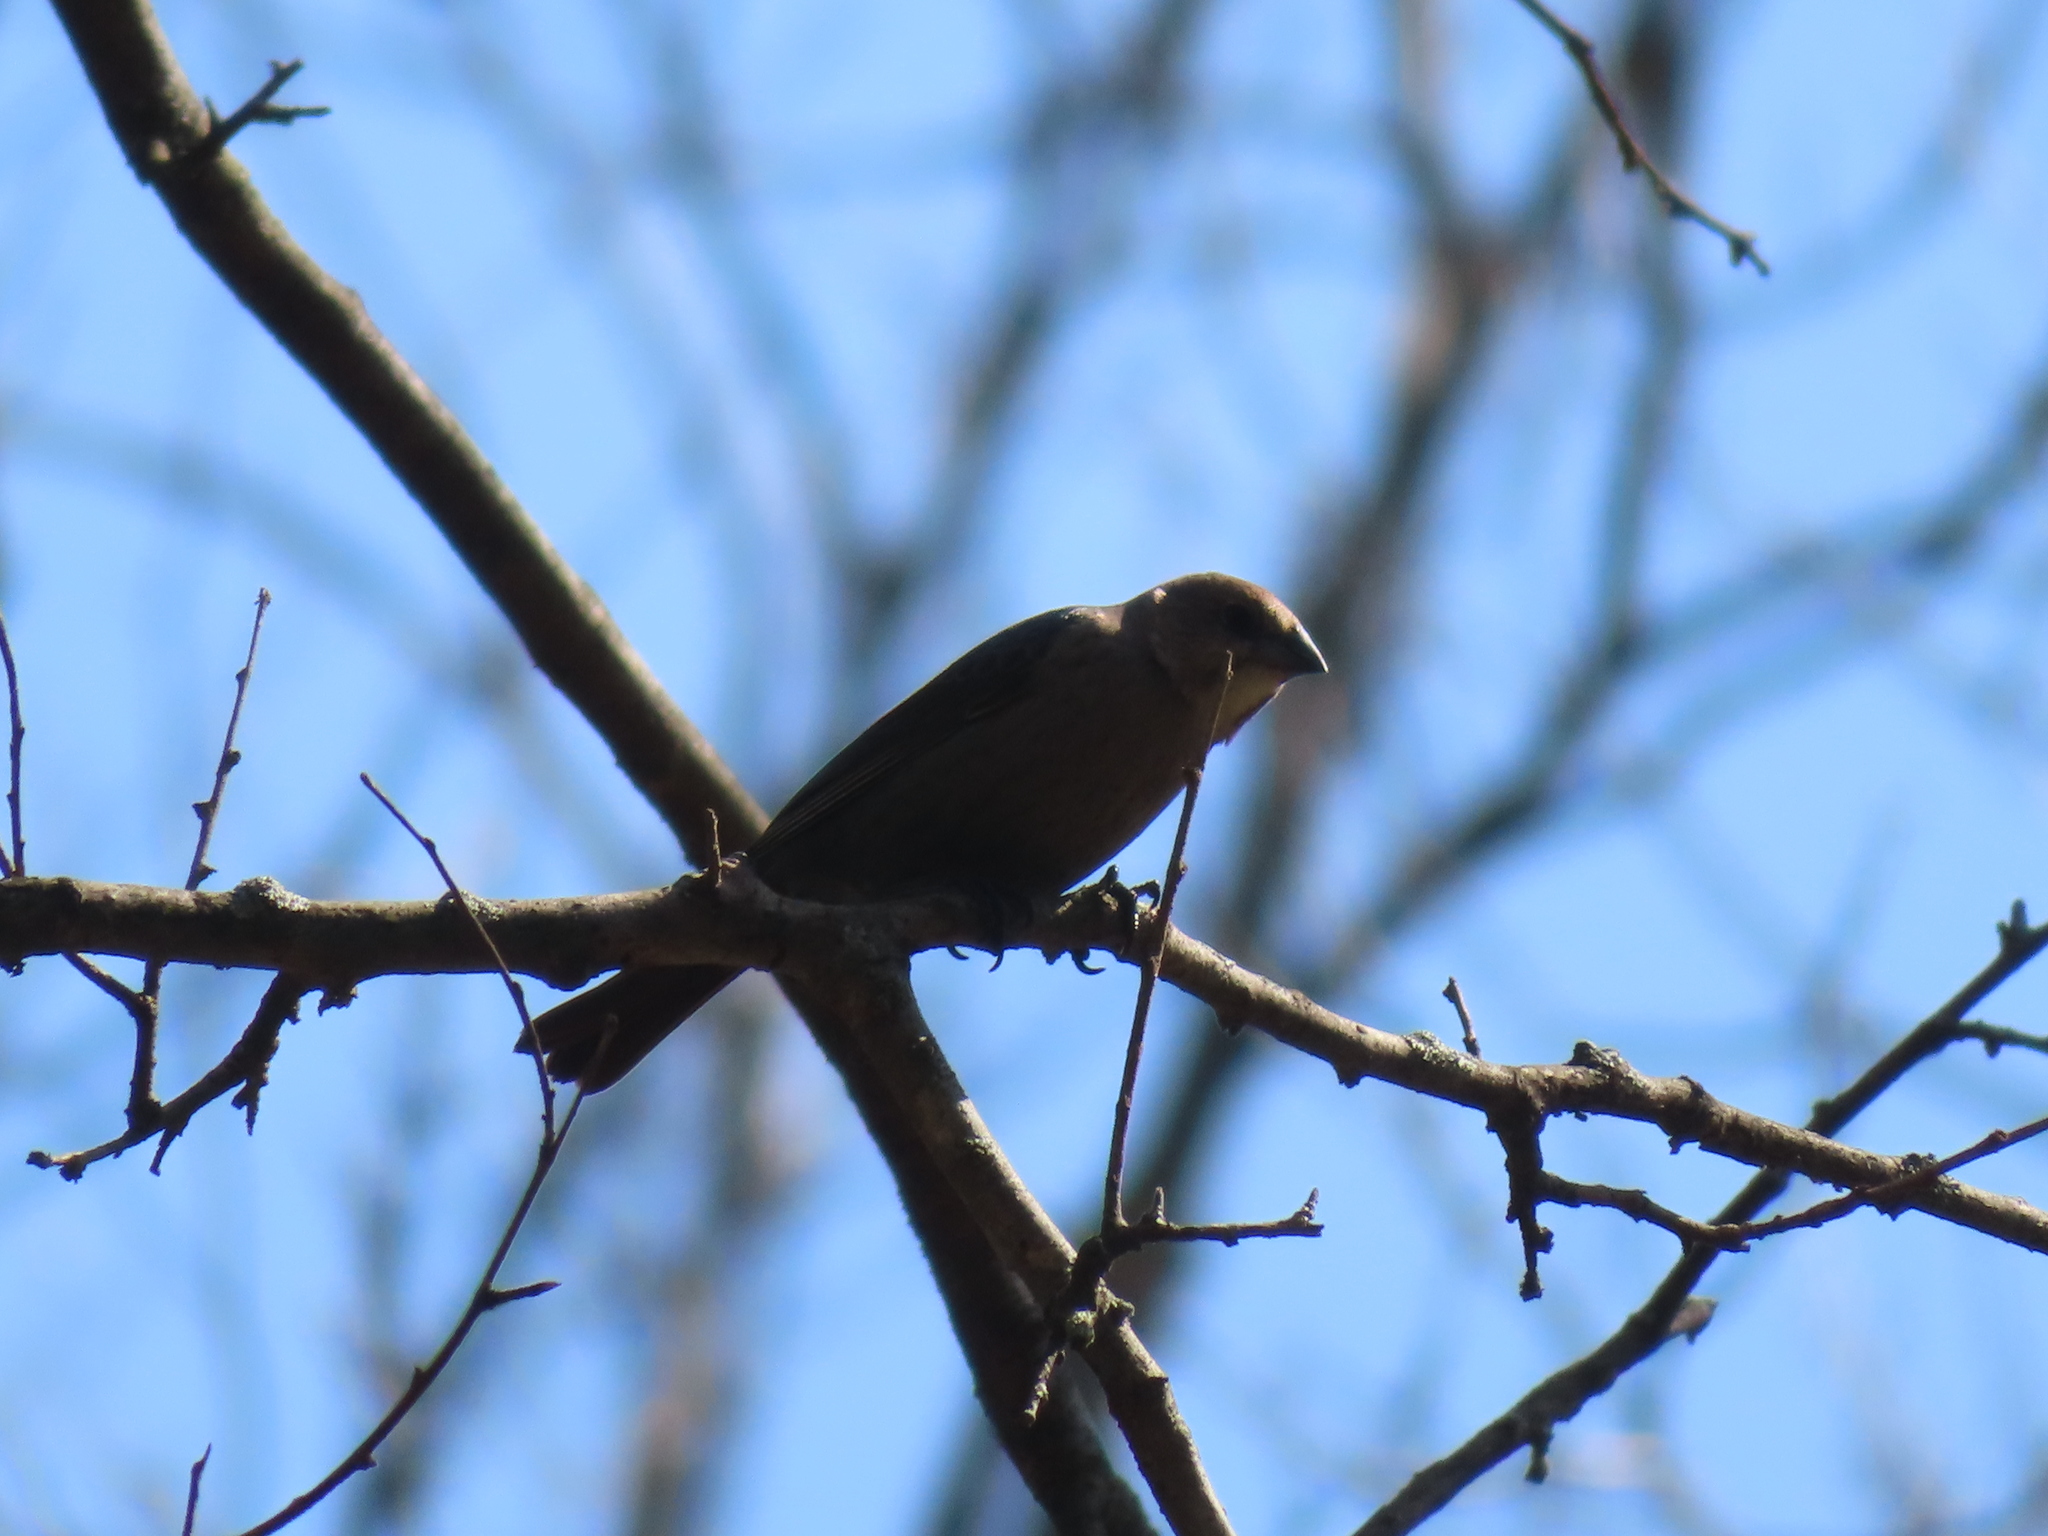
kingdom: Animalia
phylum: Chordata
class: Aves
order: Passeriformes
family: Icteridae
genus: Molothrus
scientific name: Molothrus ater
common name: Brown-headed cowbird
